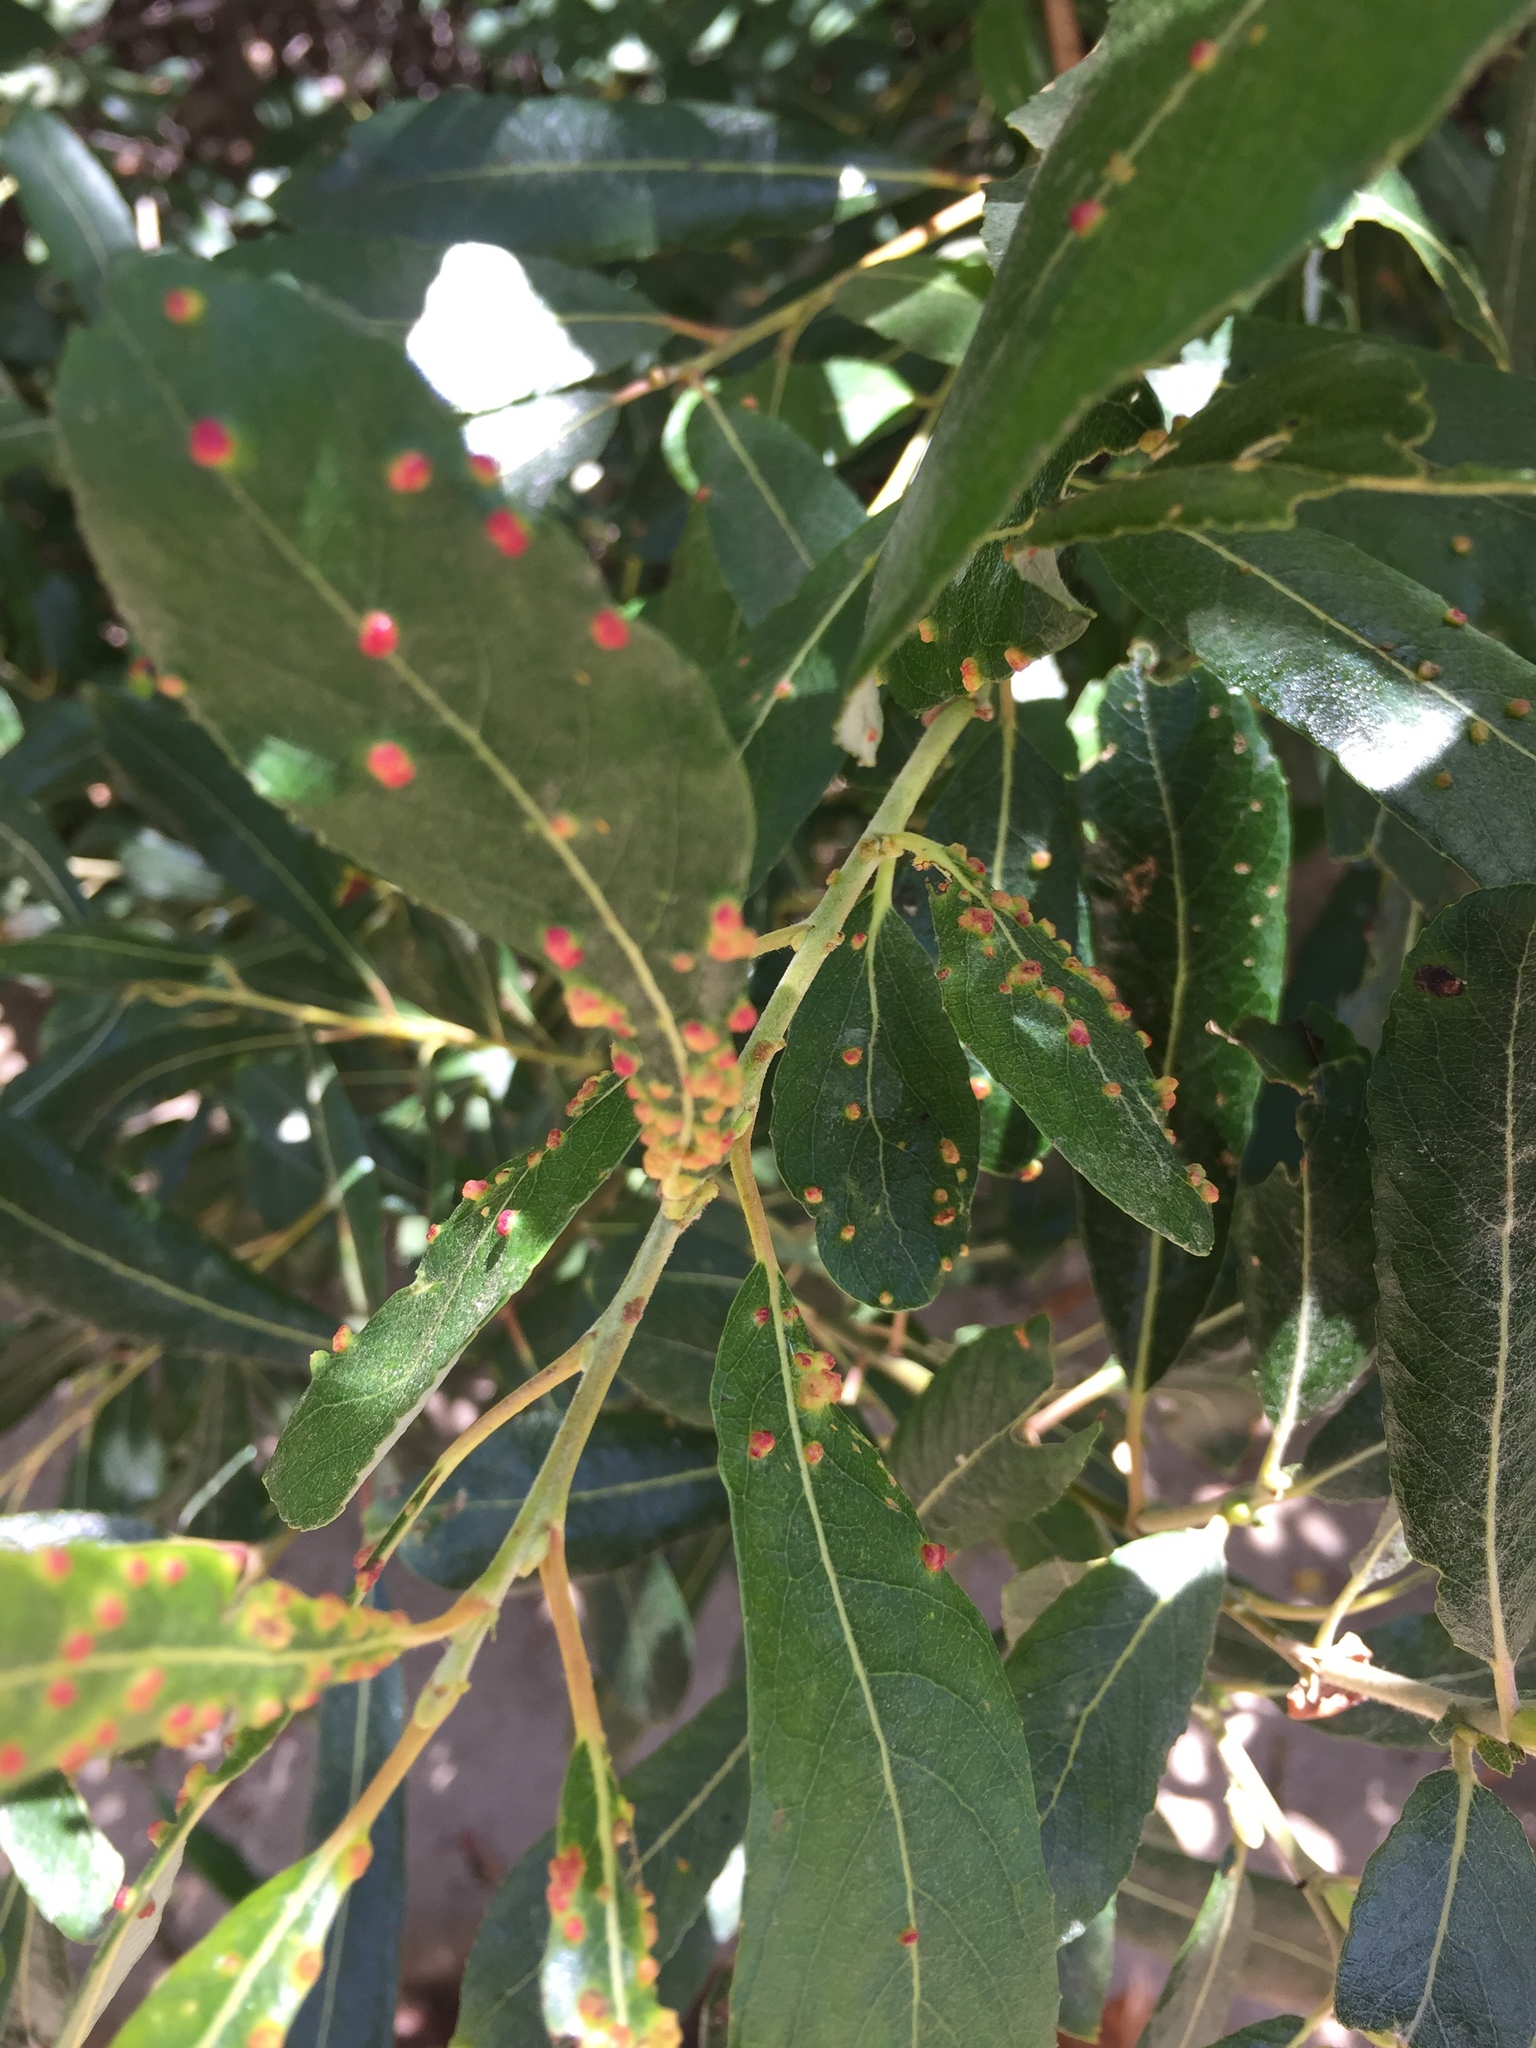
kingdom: Animalia
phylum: Arthropoda
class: Arachnida
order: Trombidiformes
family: Eriophyidae
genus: Aculus
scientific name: Aculus tetanothrix
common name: Willow bead gall mite
